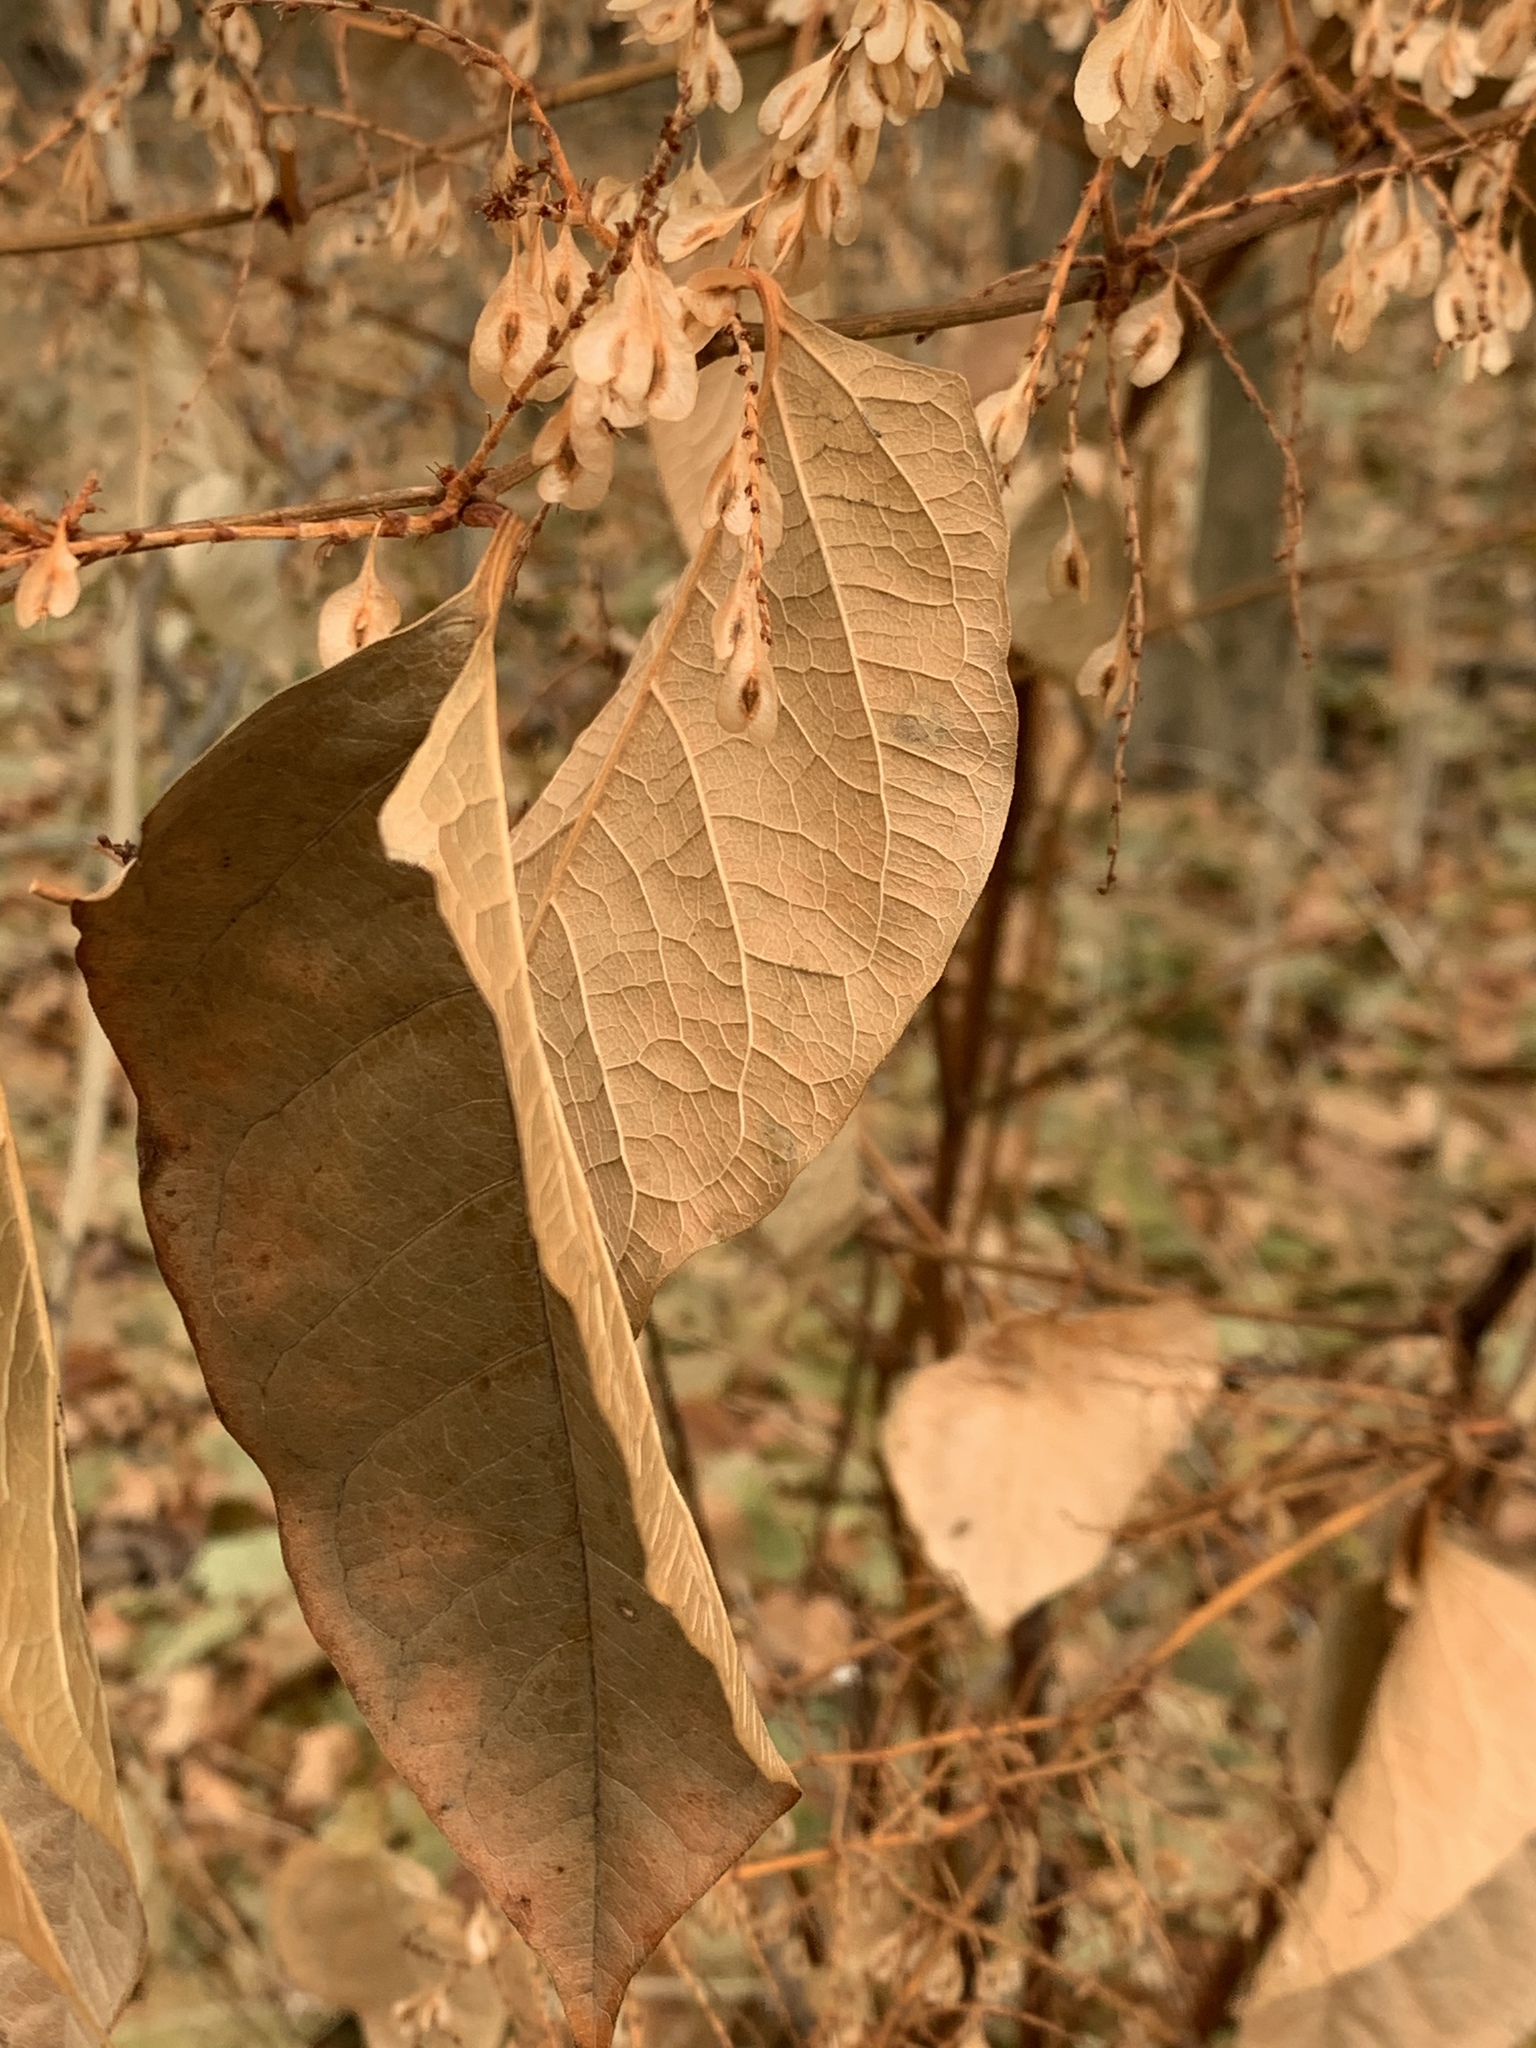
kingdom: Plantae
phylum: Tracheophyta
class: Magnoliopsida
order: Caryophyllales
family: Polygonaceae
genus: Reynoutria
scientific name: Reynoutria japonica
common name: Japanese knotweed
